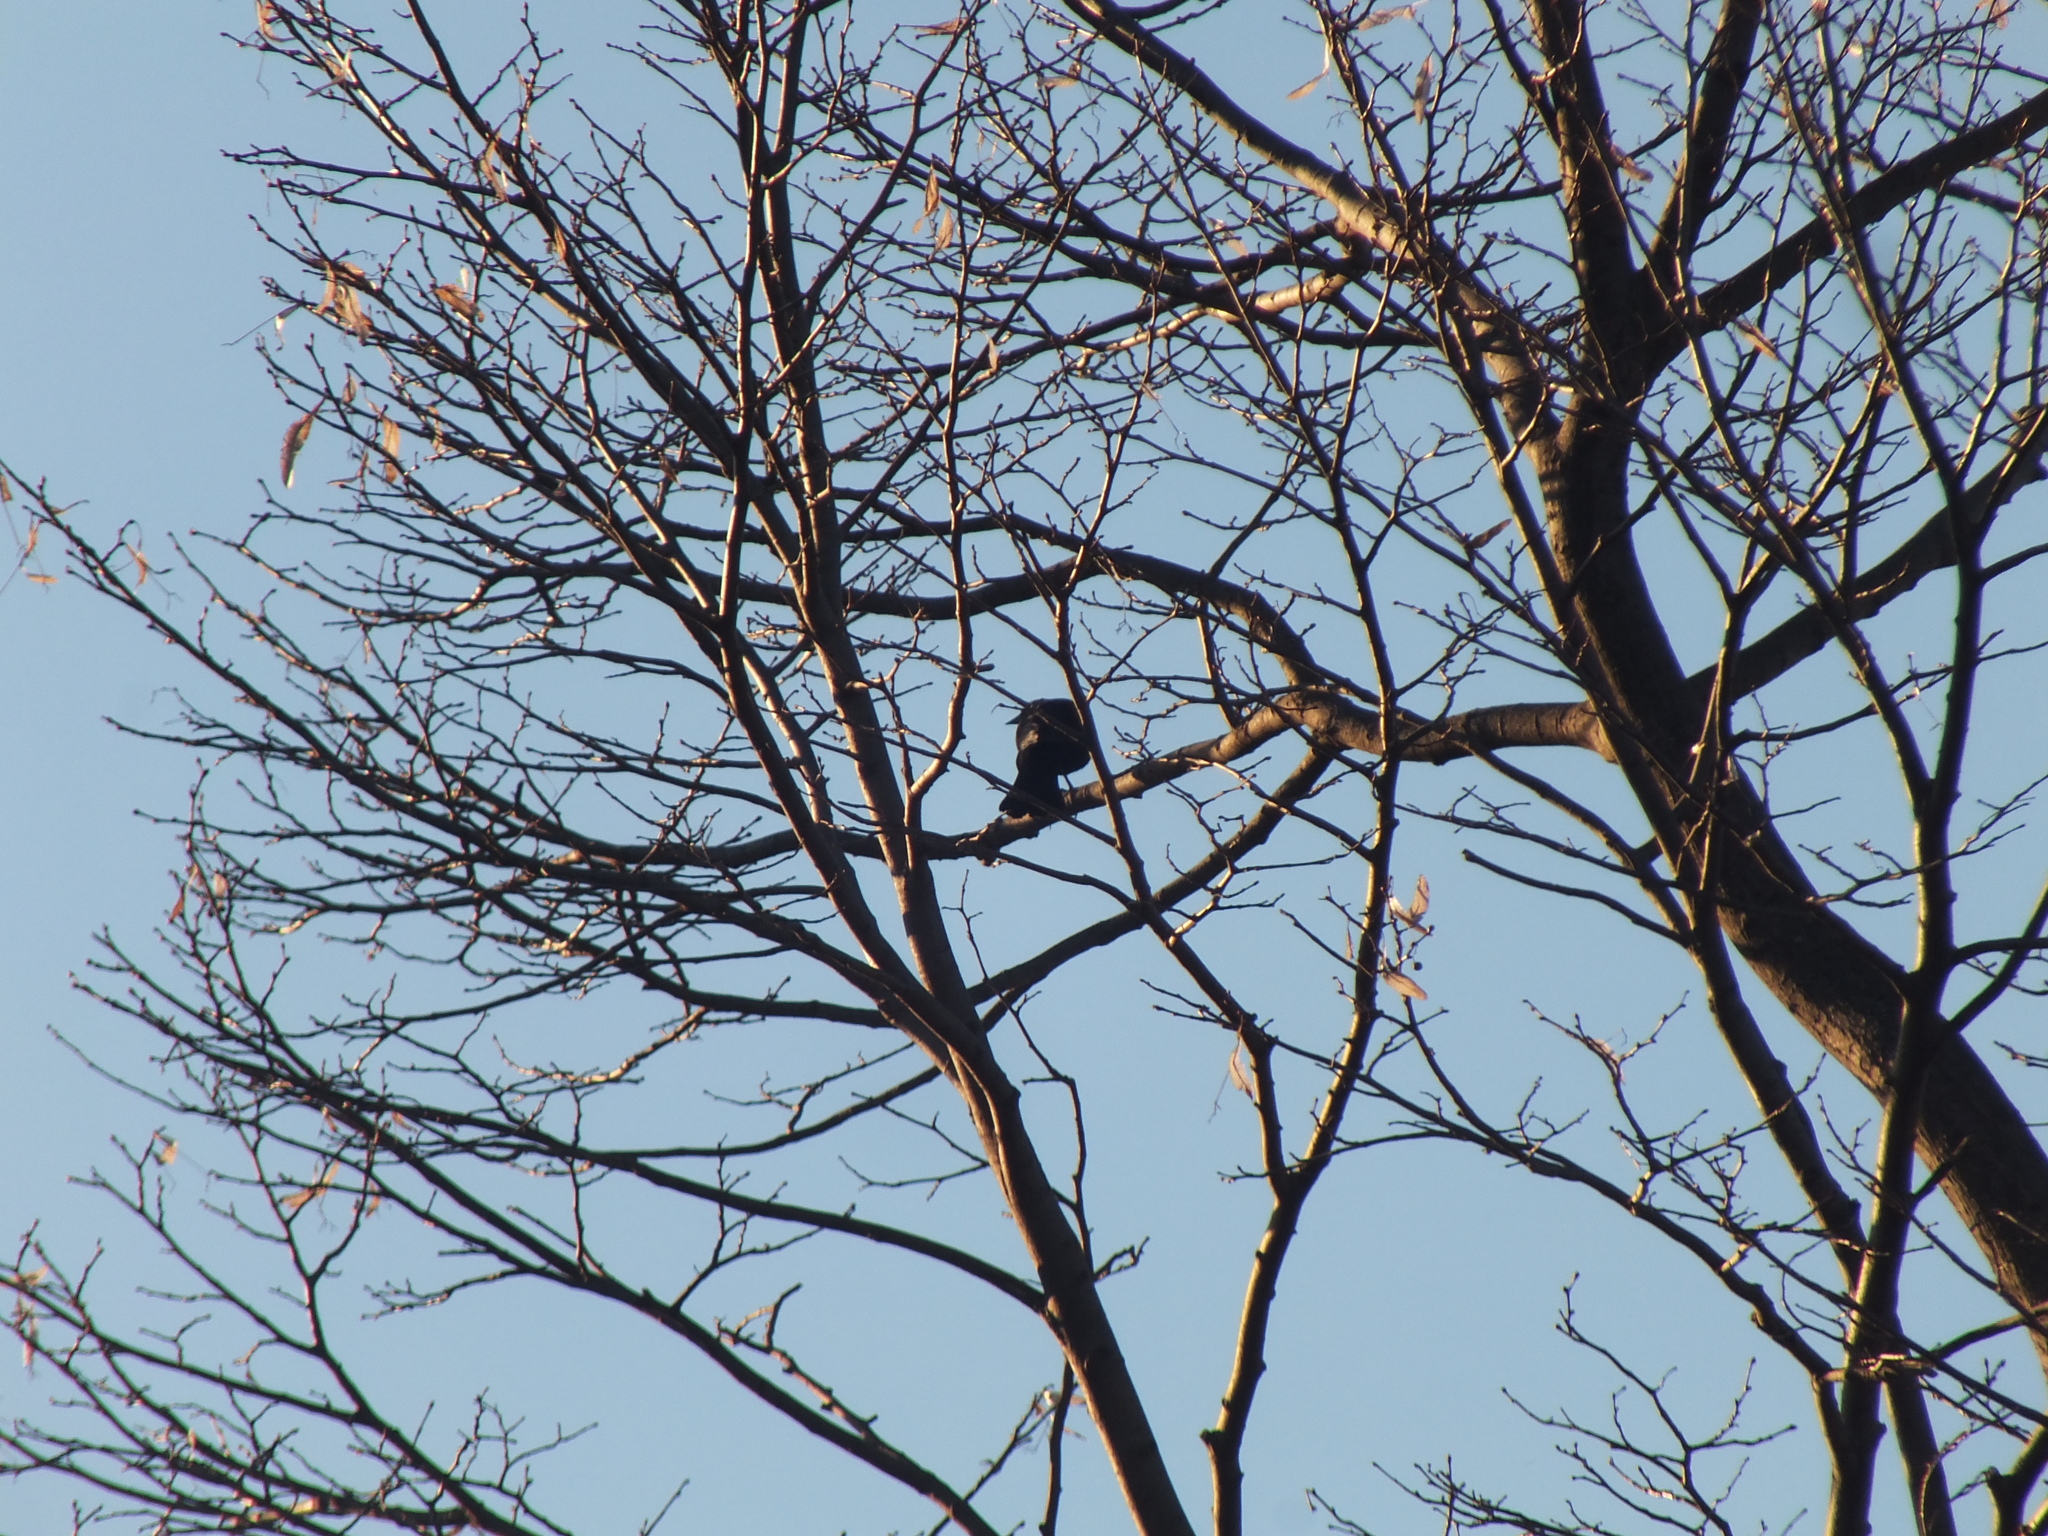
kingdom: Animalia
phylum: Chordata
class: Aves
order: Passeriformes
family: Icteridae
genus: Quiscalus
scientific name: Quiscalus quiscula
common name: Common grackle
